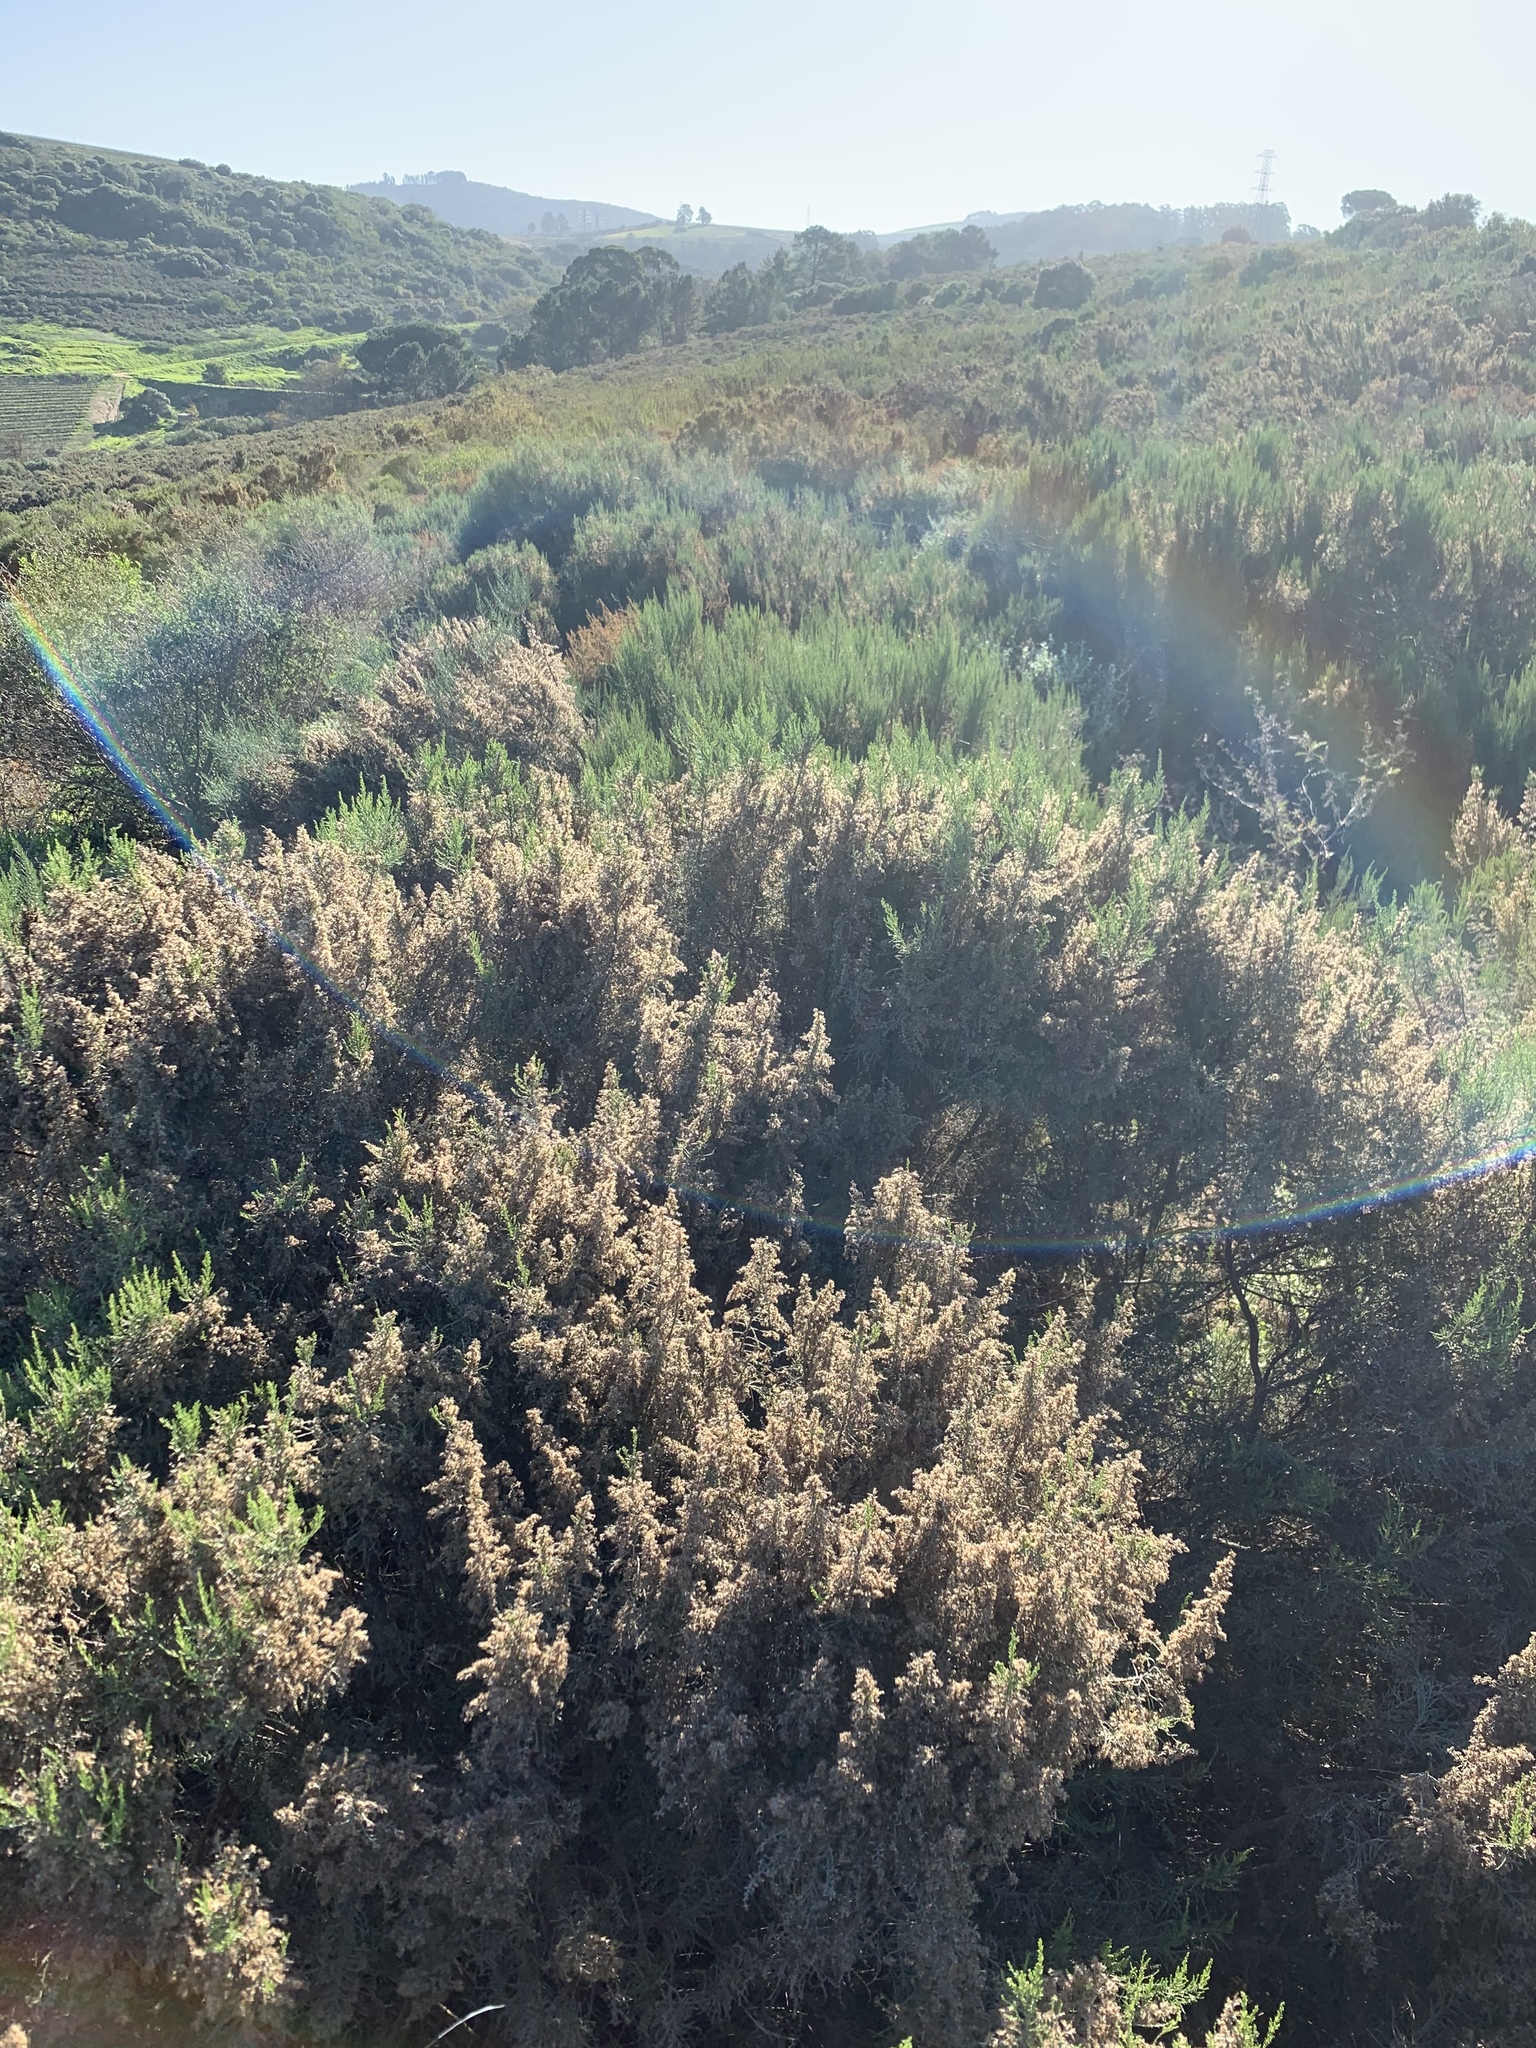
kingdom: Plantae
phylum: Tracheophyta
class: Magnoliopsida
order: Asterales
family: Asteraceae
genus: Dicerothamnus
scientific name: Dicerothamnus rhinocerotis
